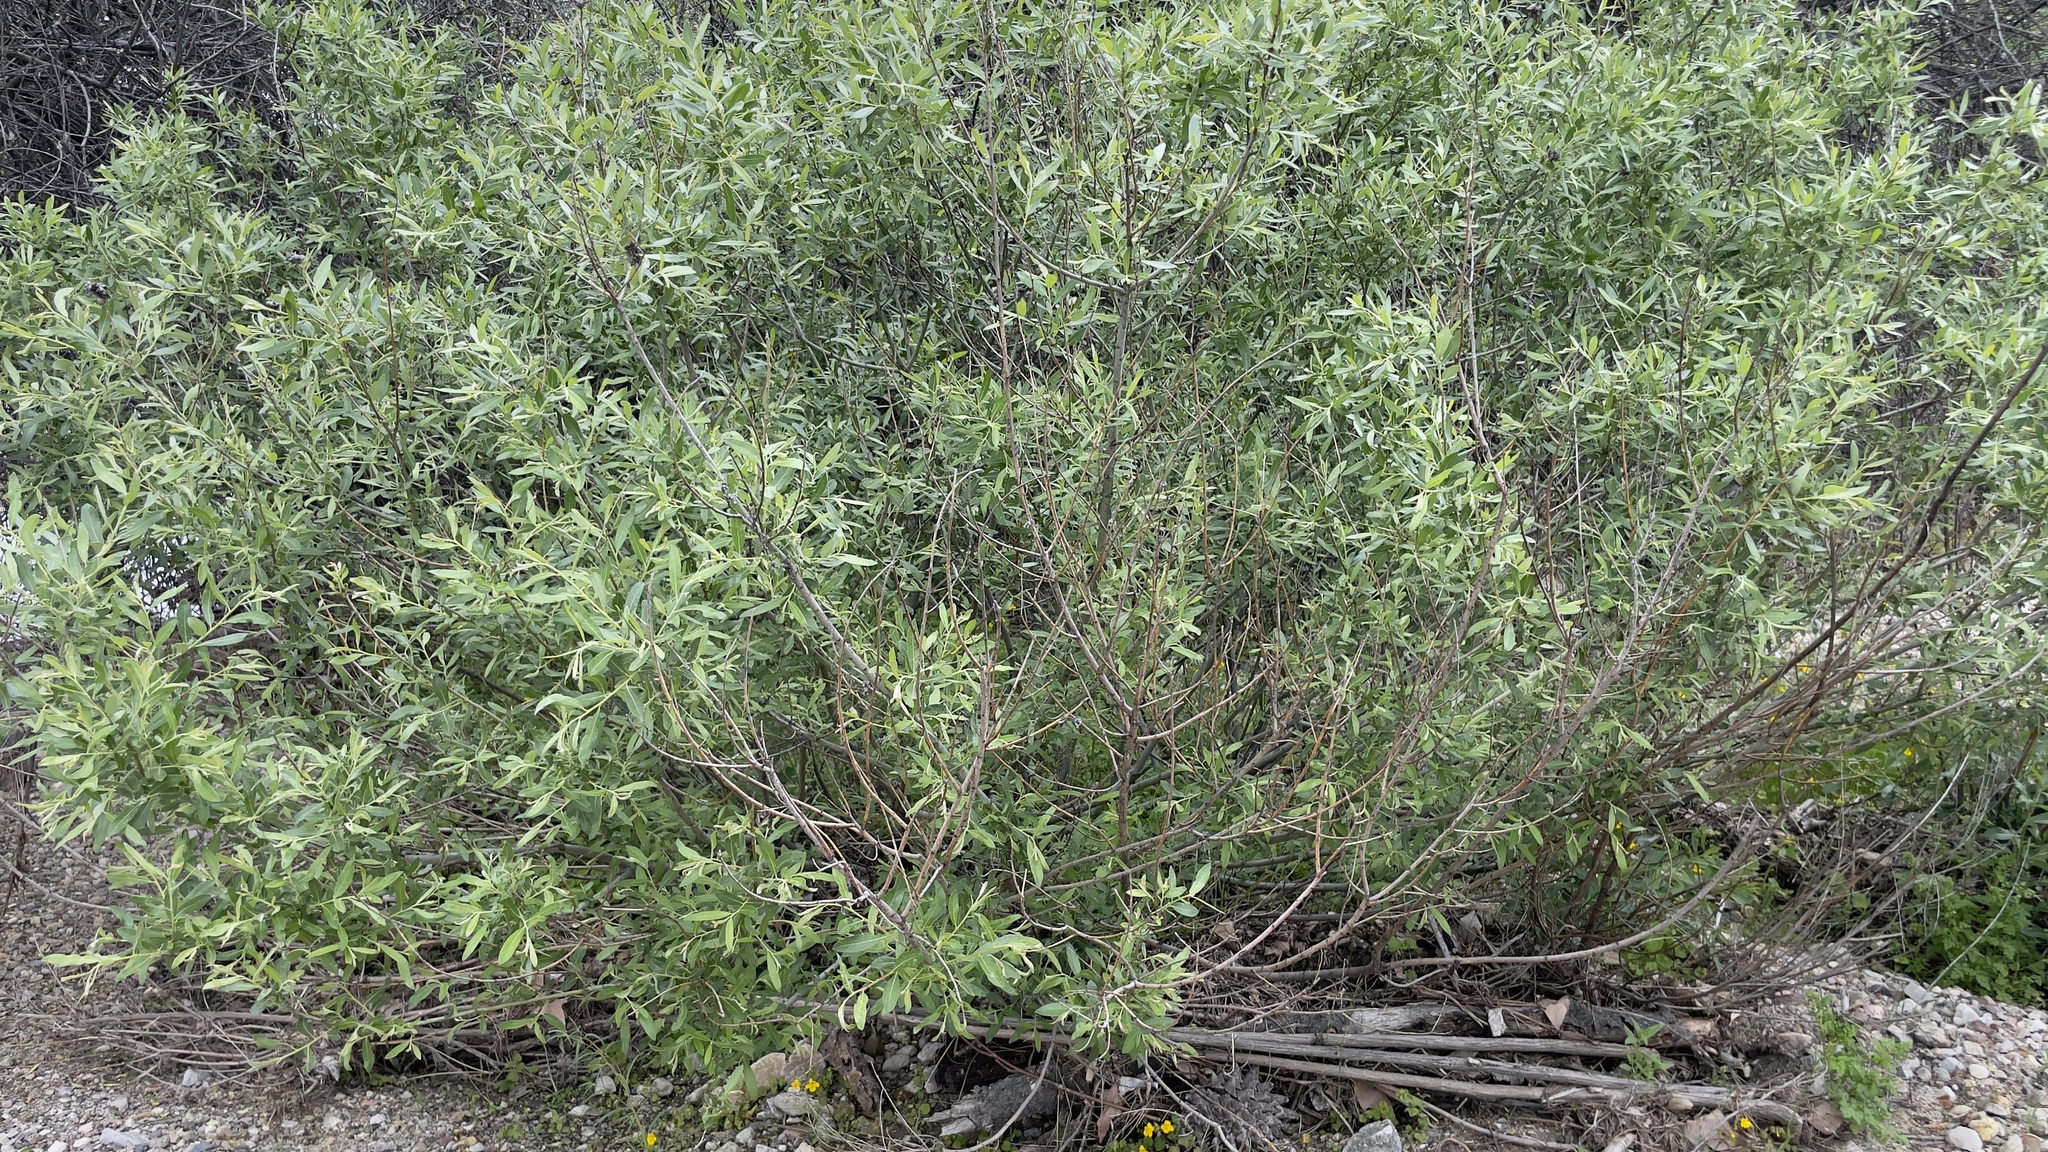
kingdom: Plantae
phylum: Tracheophyta
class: Magnoliopsida
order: Malpighiales
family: Salicaceae
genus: Salix
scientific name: Salix lasiolepis
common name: Arroyo willow
